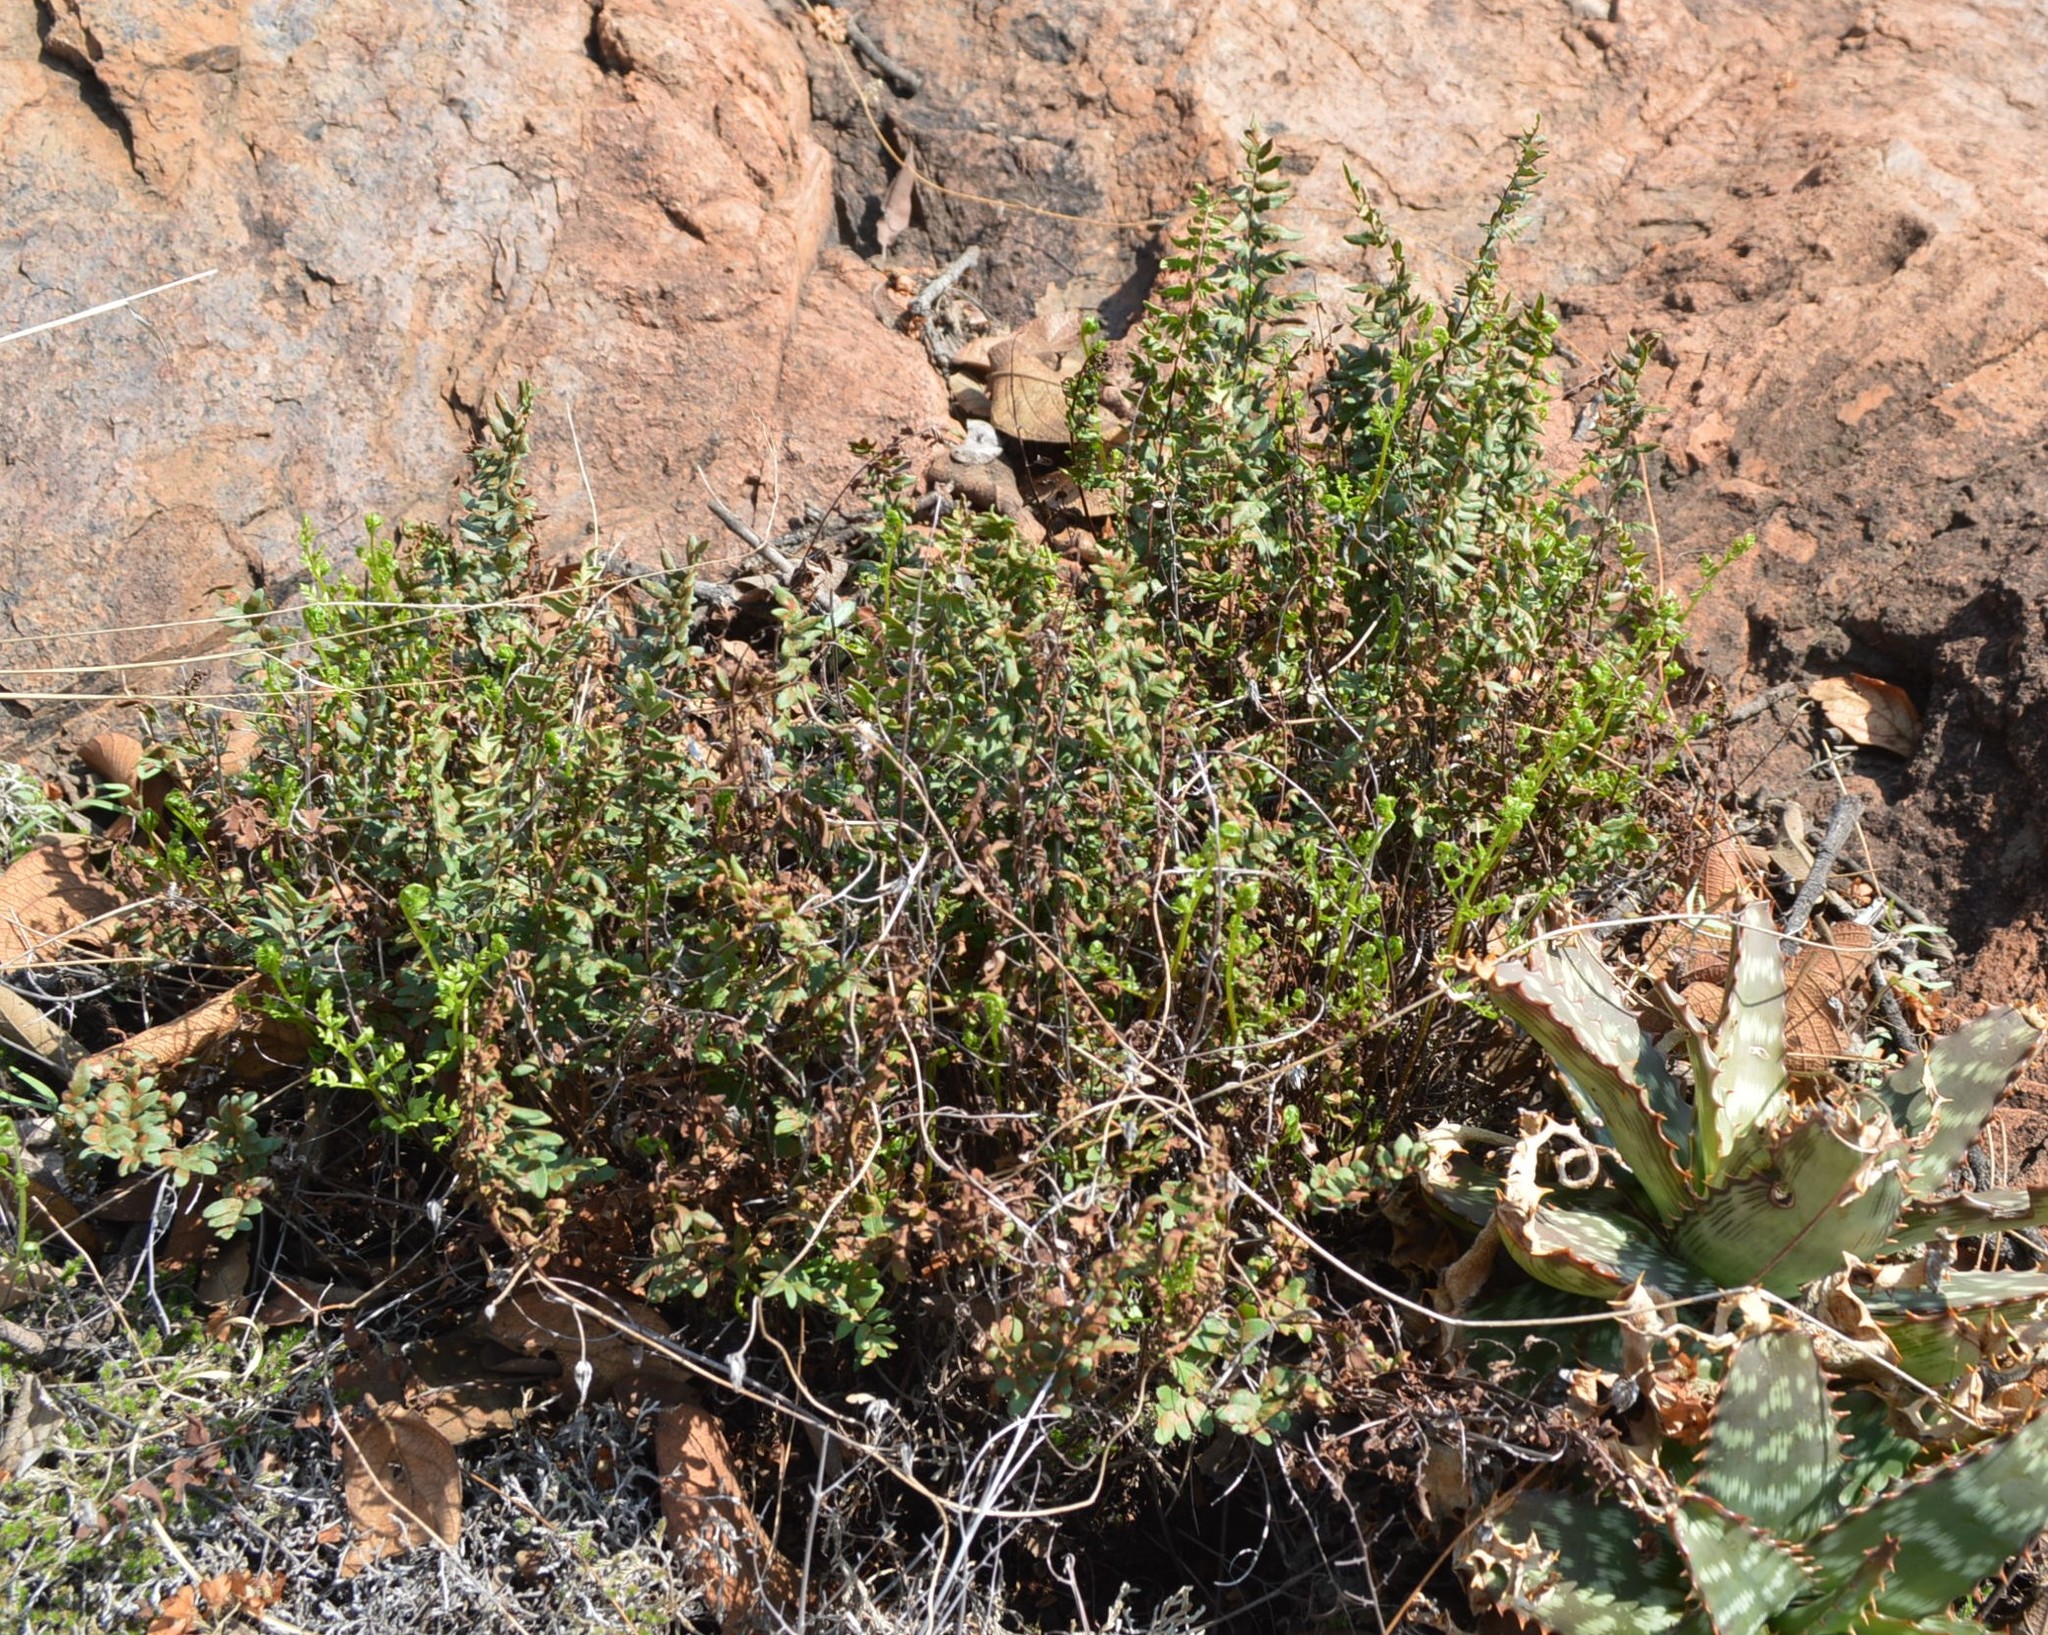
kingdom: Plantae
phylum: Tracheophyta
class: Polypodiopsida
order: Polypodiales
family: Pteridaceae
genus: Cheilanthes
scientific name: Cheilanthes viridis
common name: Green cliffbrake
